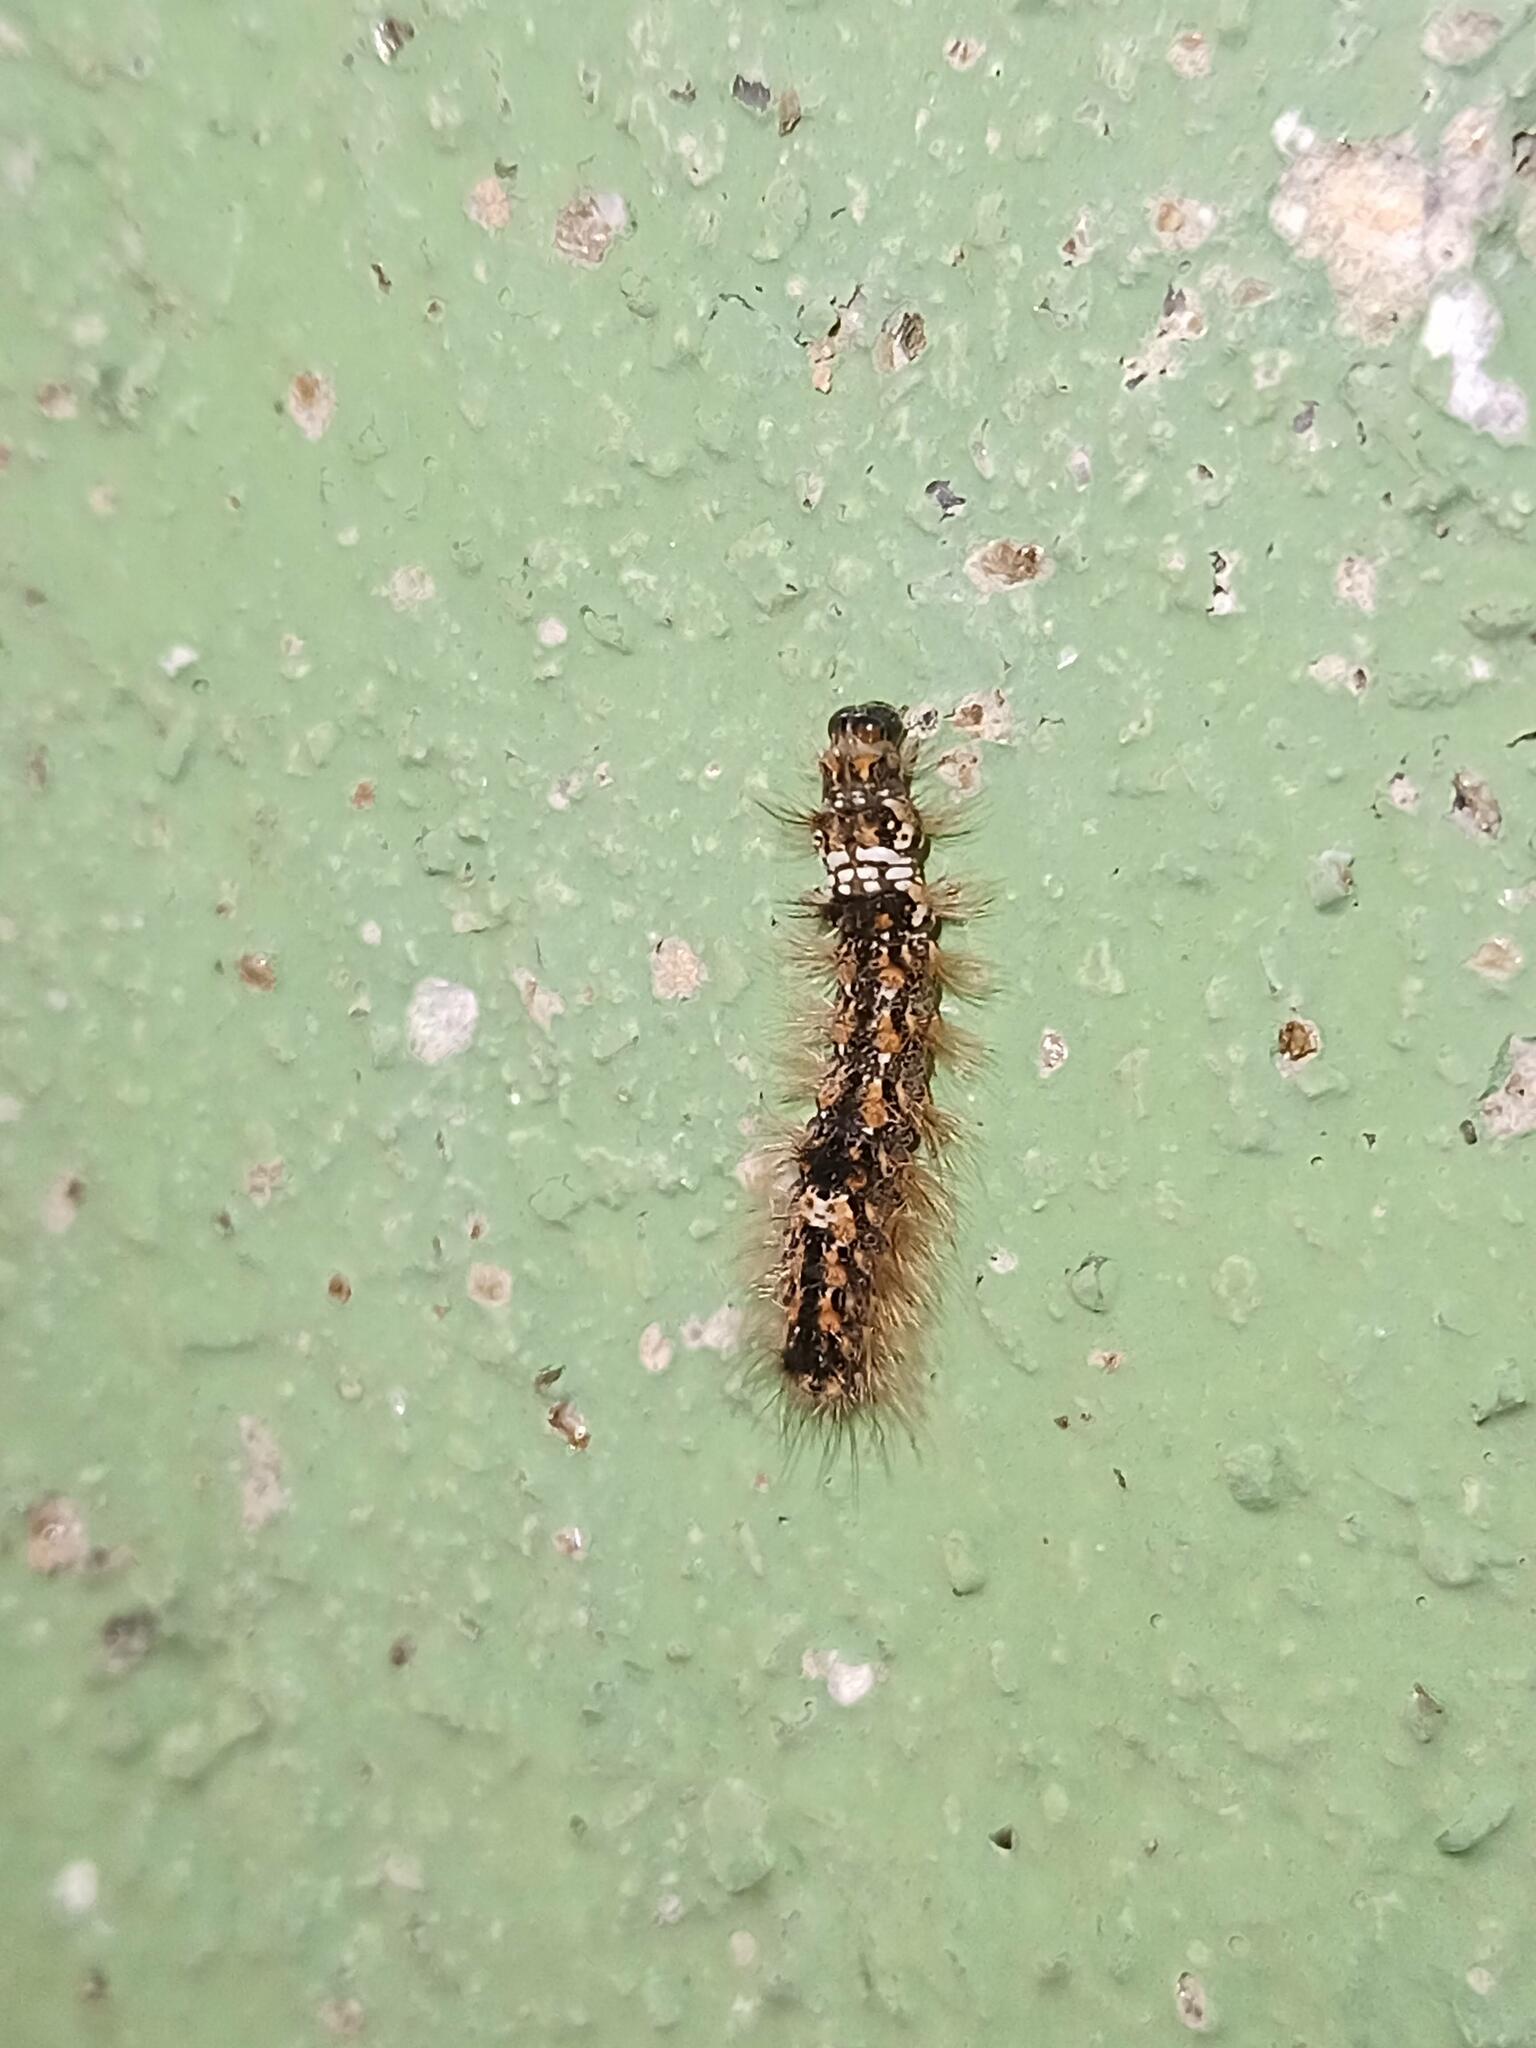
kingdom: Animalia
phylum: Arthropoda
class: Insecta
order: Lepidoptera
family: Erebidae
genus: Wittia
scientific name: Wittia sororcula
